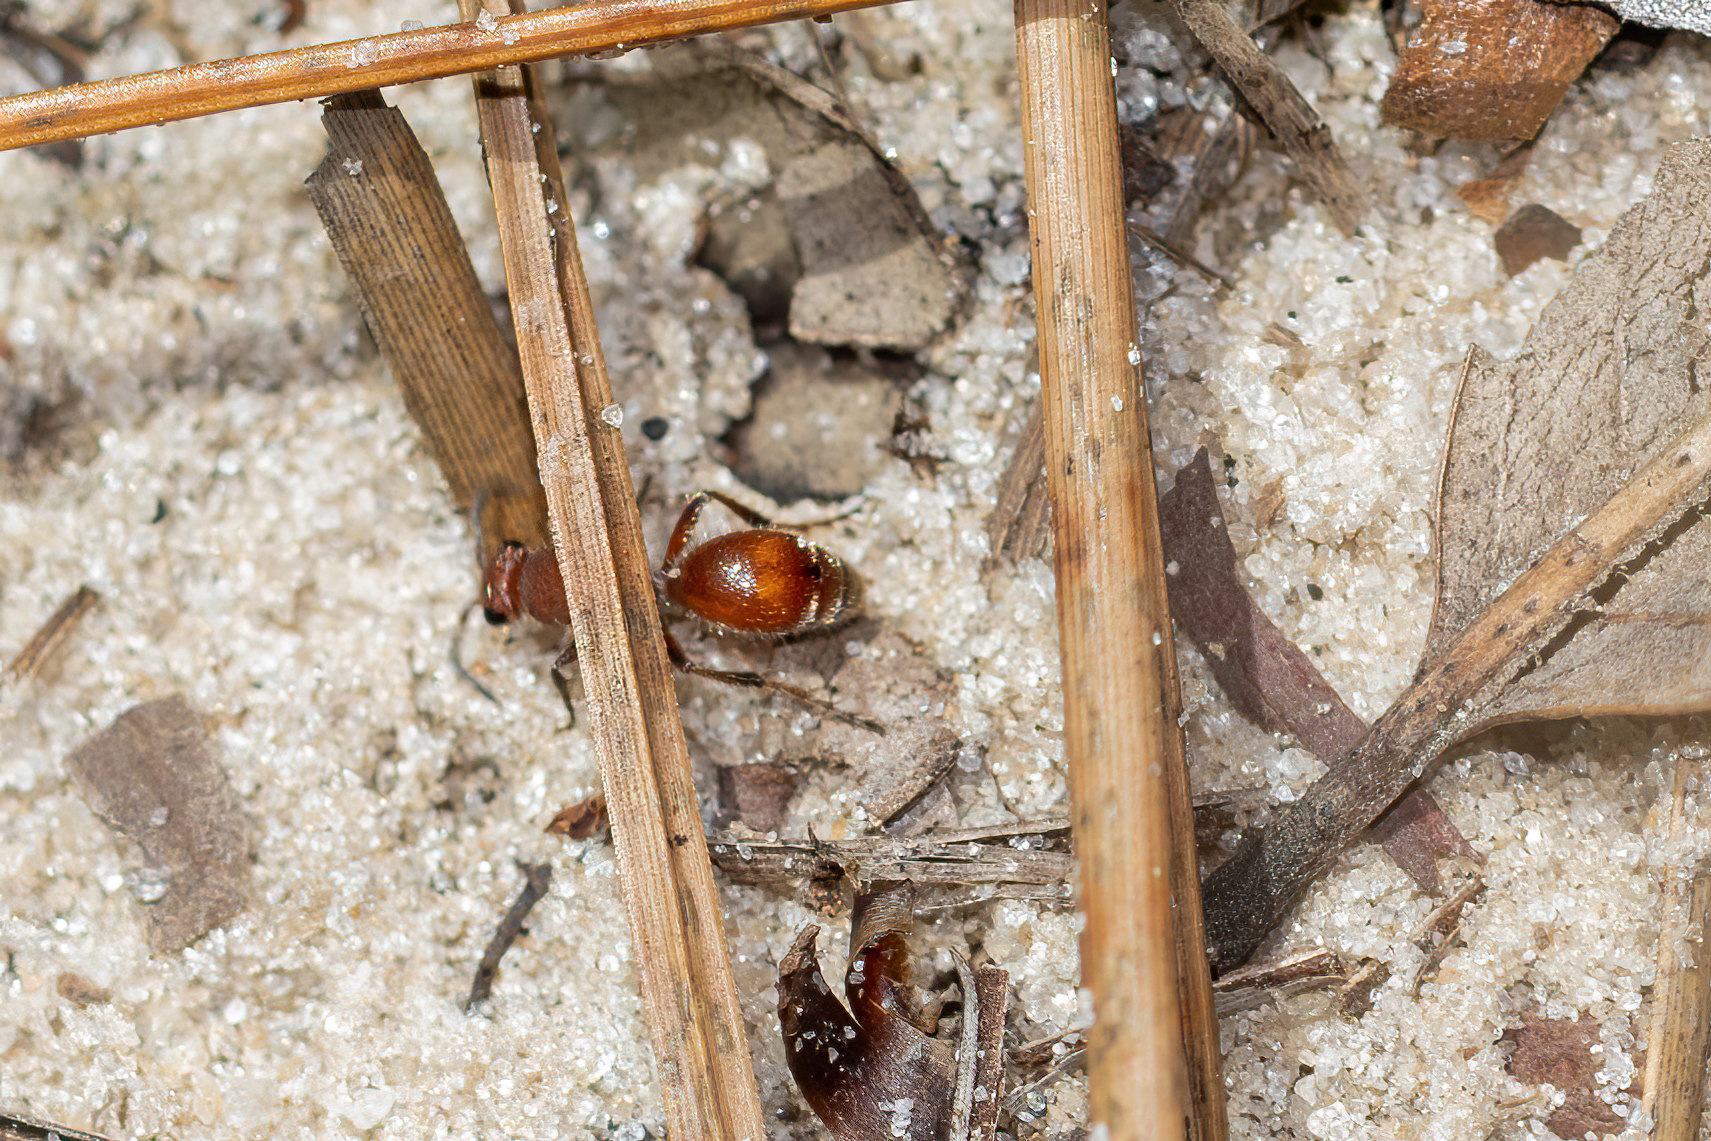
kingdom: Animalia
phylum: Arthropoda
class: Insecta
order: Hymenoptera
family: Mutillidae
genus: Dasymutilla
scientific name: Dasymutilla arenerronea
